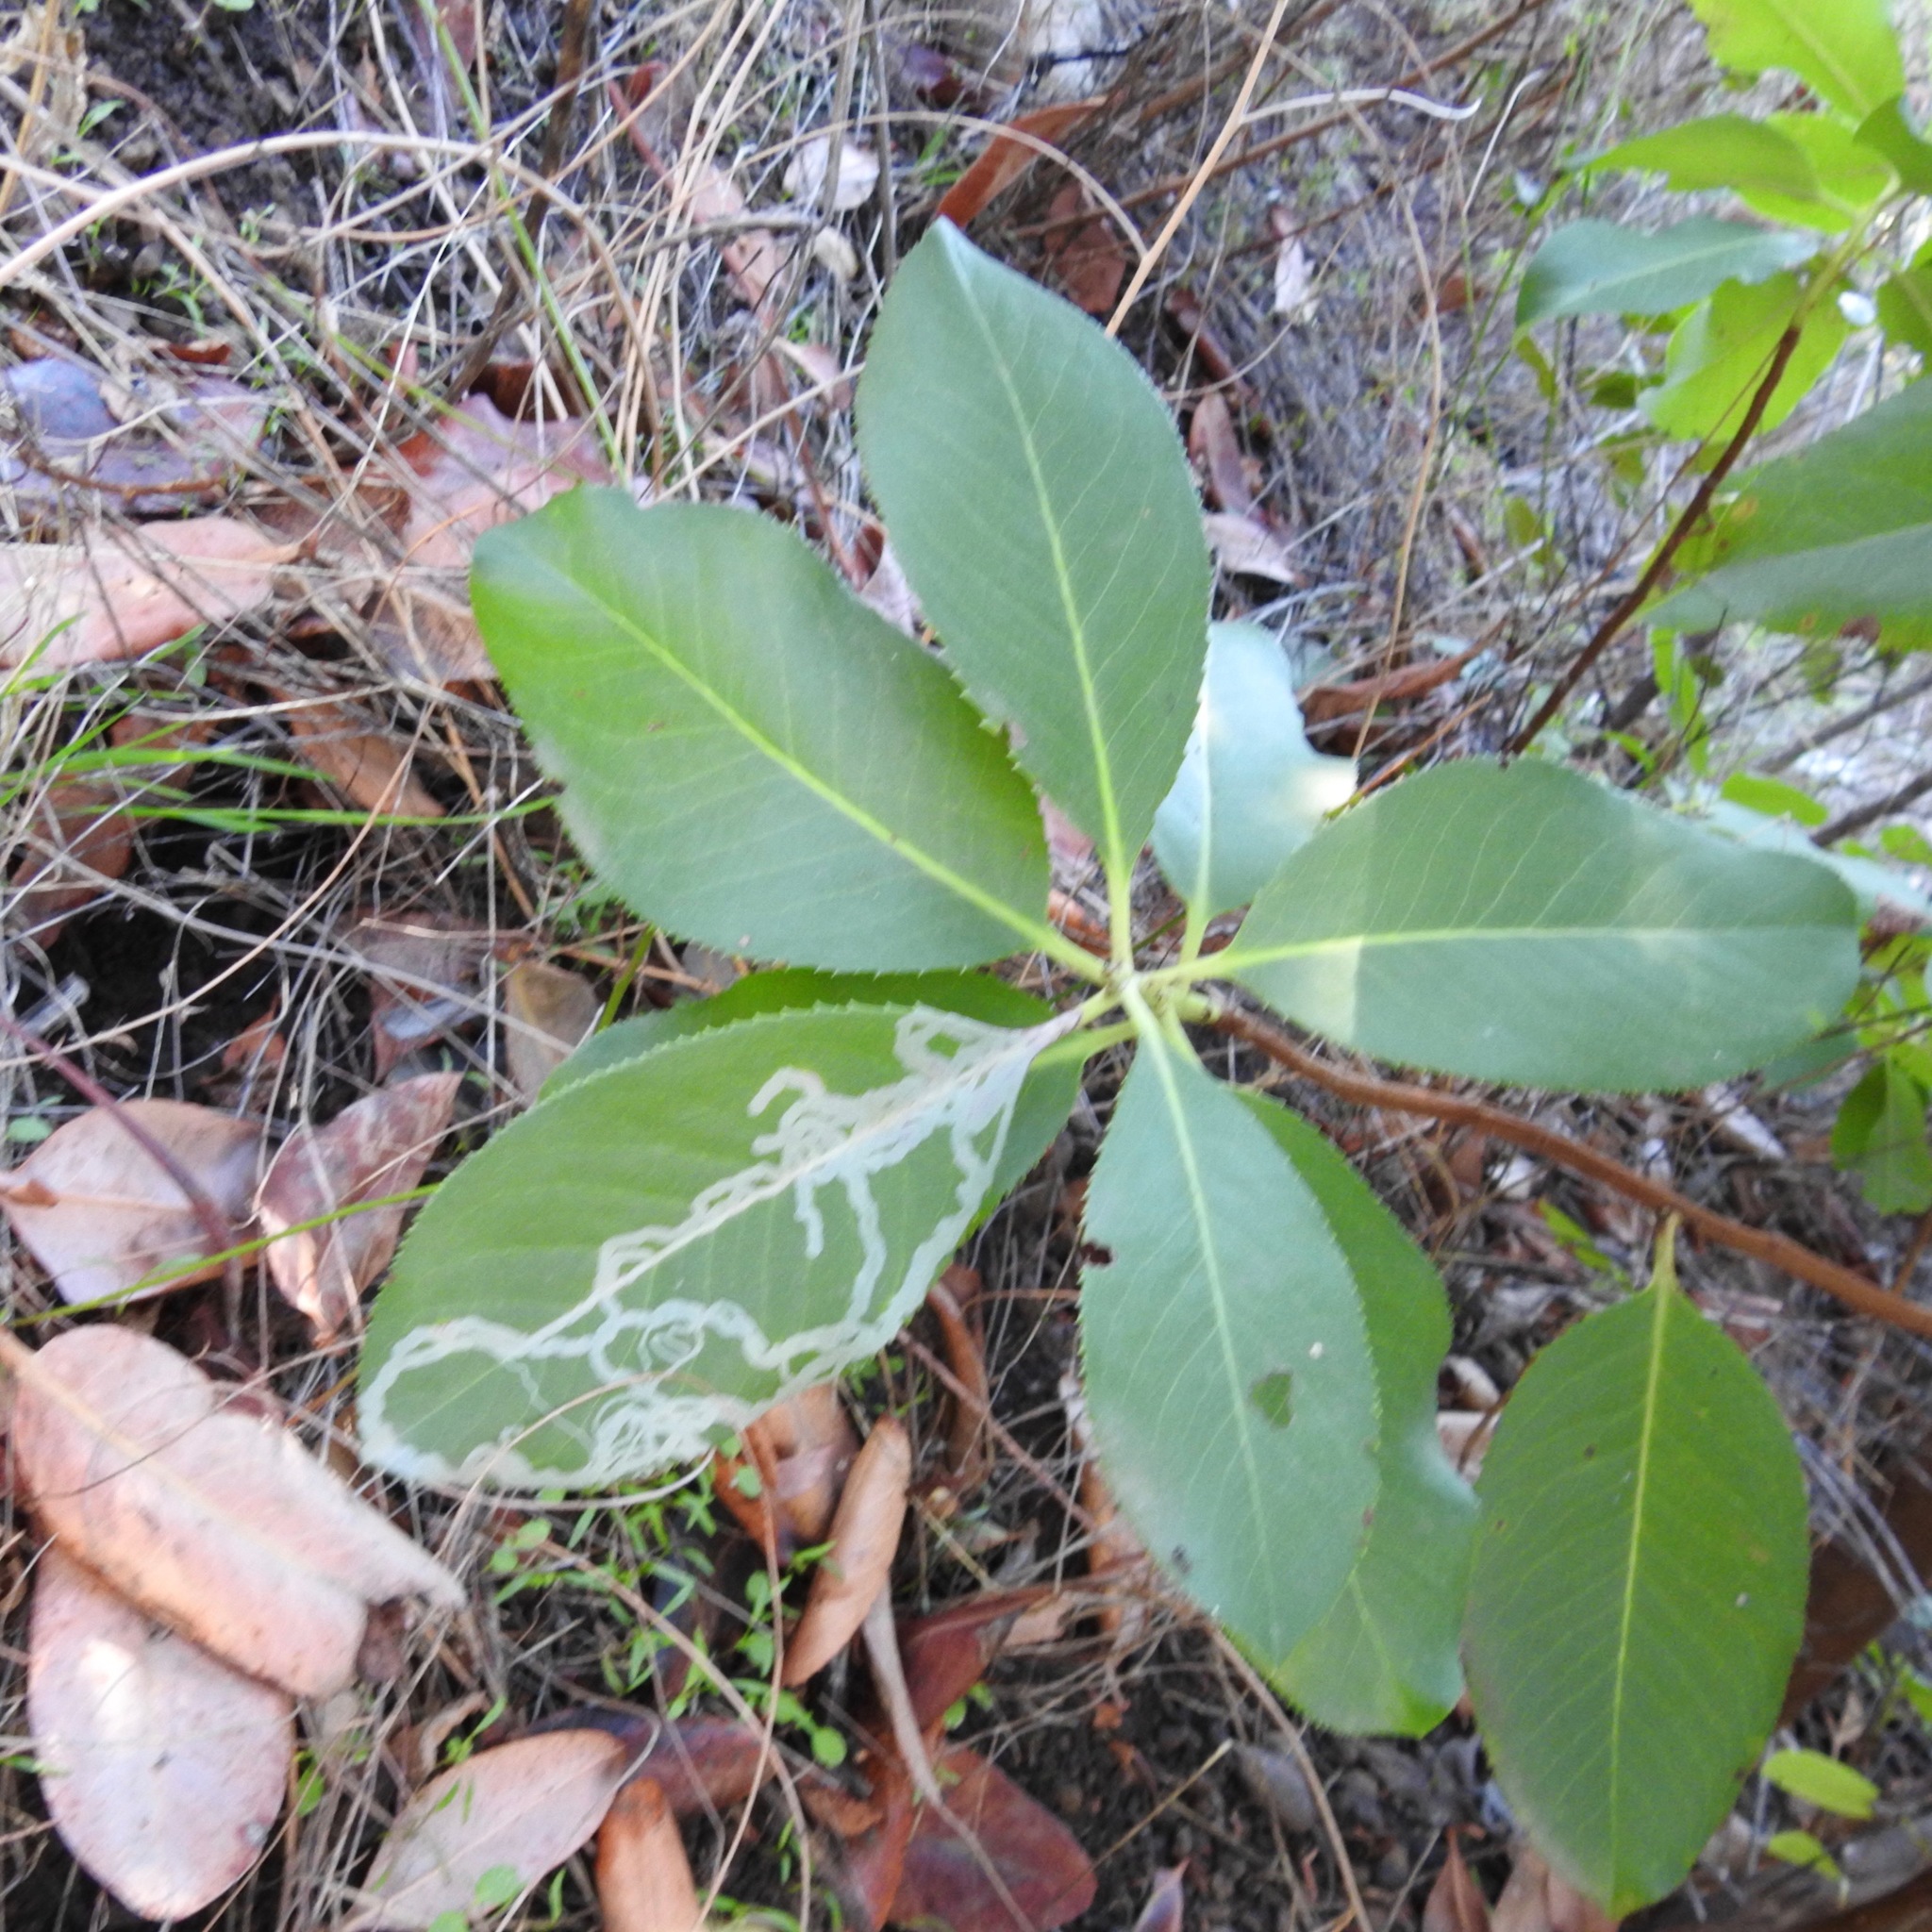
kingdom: Plantae
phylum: Tracheophyta
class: Magnoliopsida
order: Ericales
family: Ericaceae
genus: Arbutus
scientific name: Arbutus menziesii
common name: Pacific madrone
